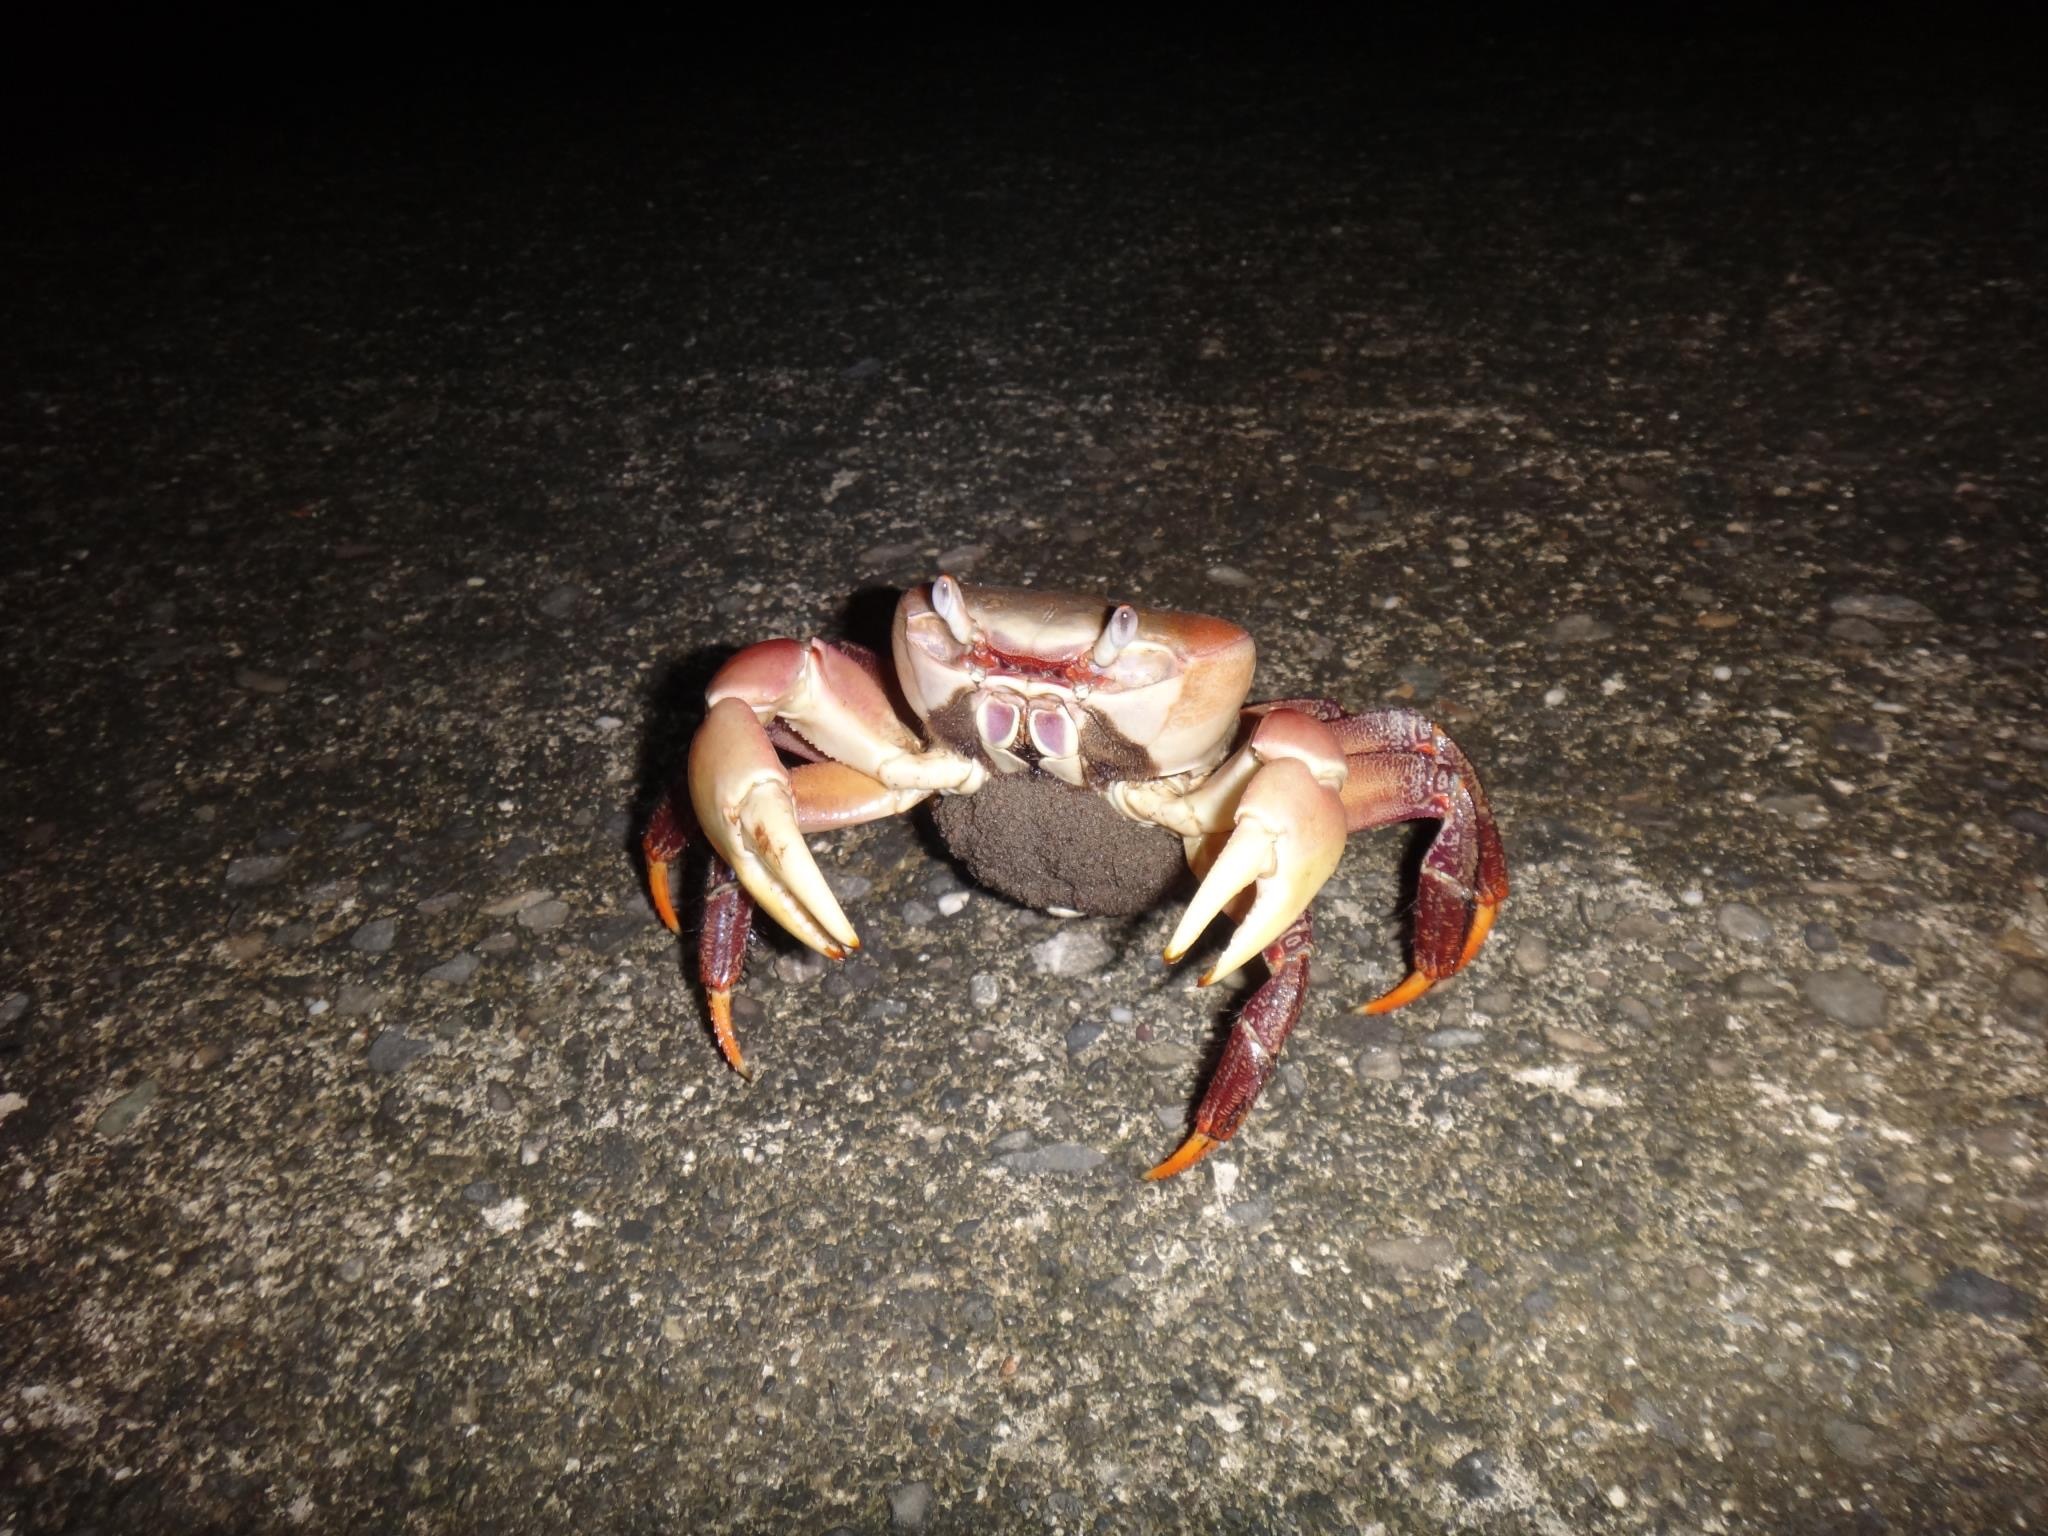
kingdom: Animalia
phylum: Arthropoda
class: Malacostraca
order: Decapoda
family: Gecarcinidae
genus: Cardisoma
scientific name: Cardisoma carnifex
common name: Brown land crab
